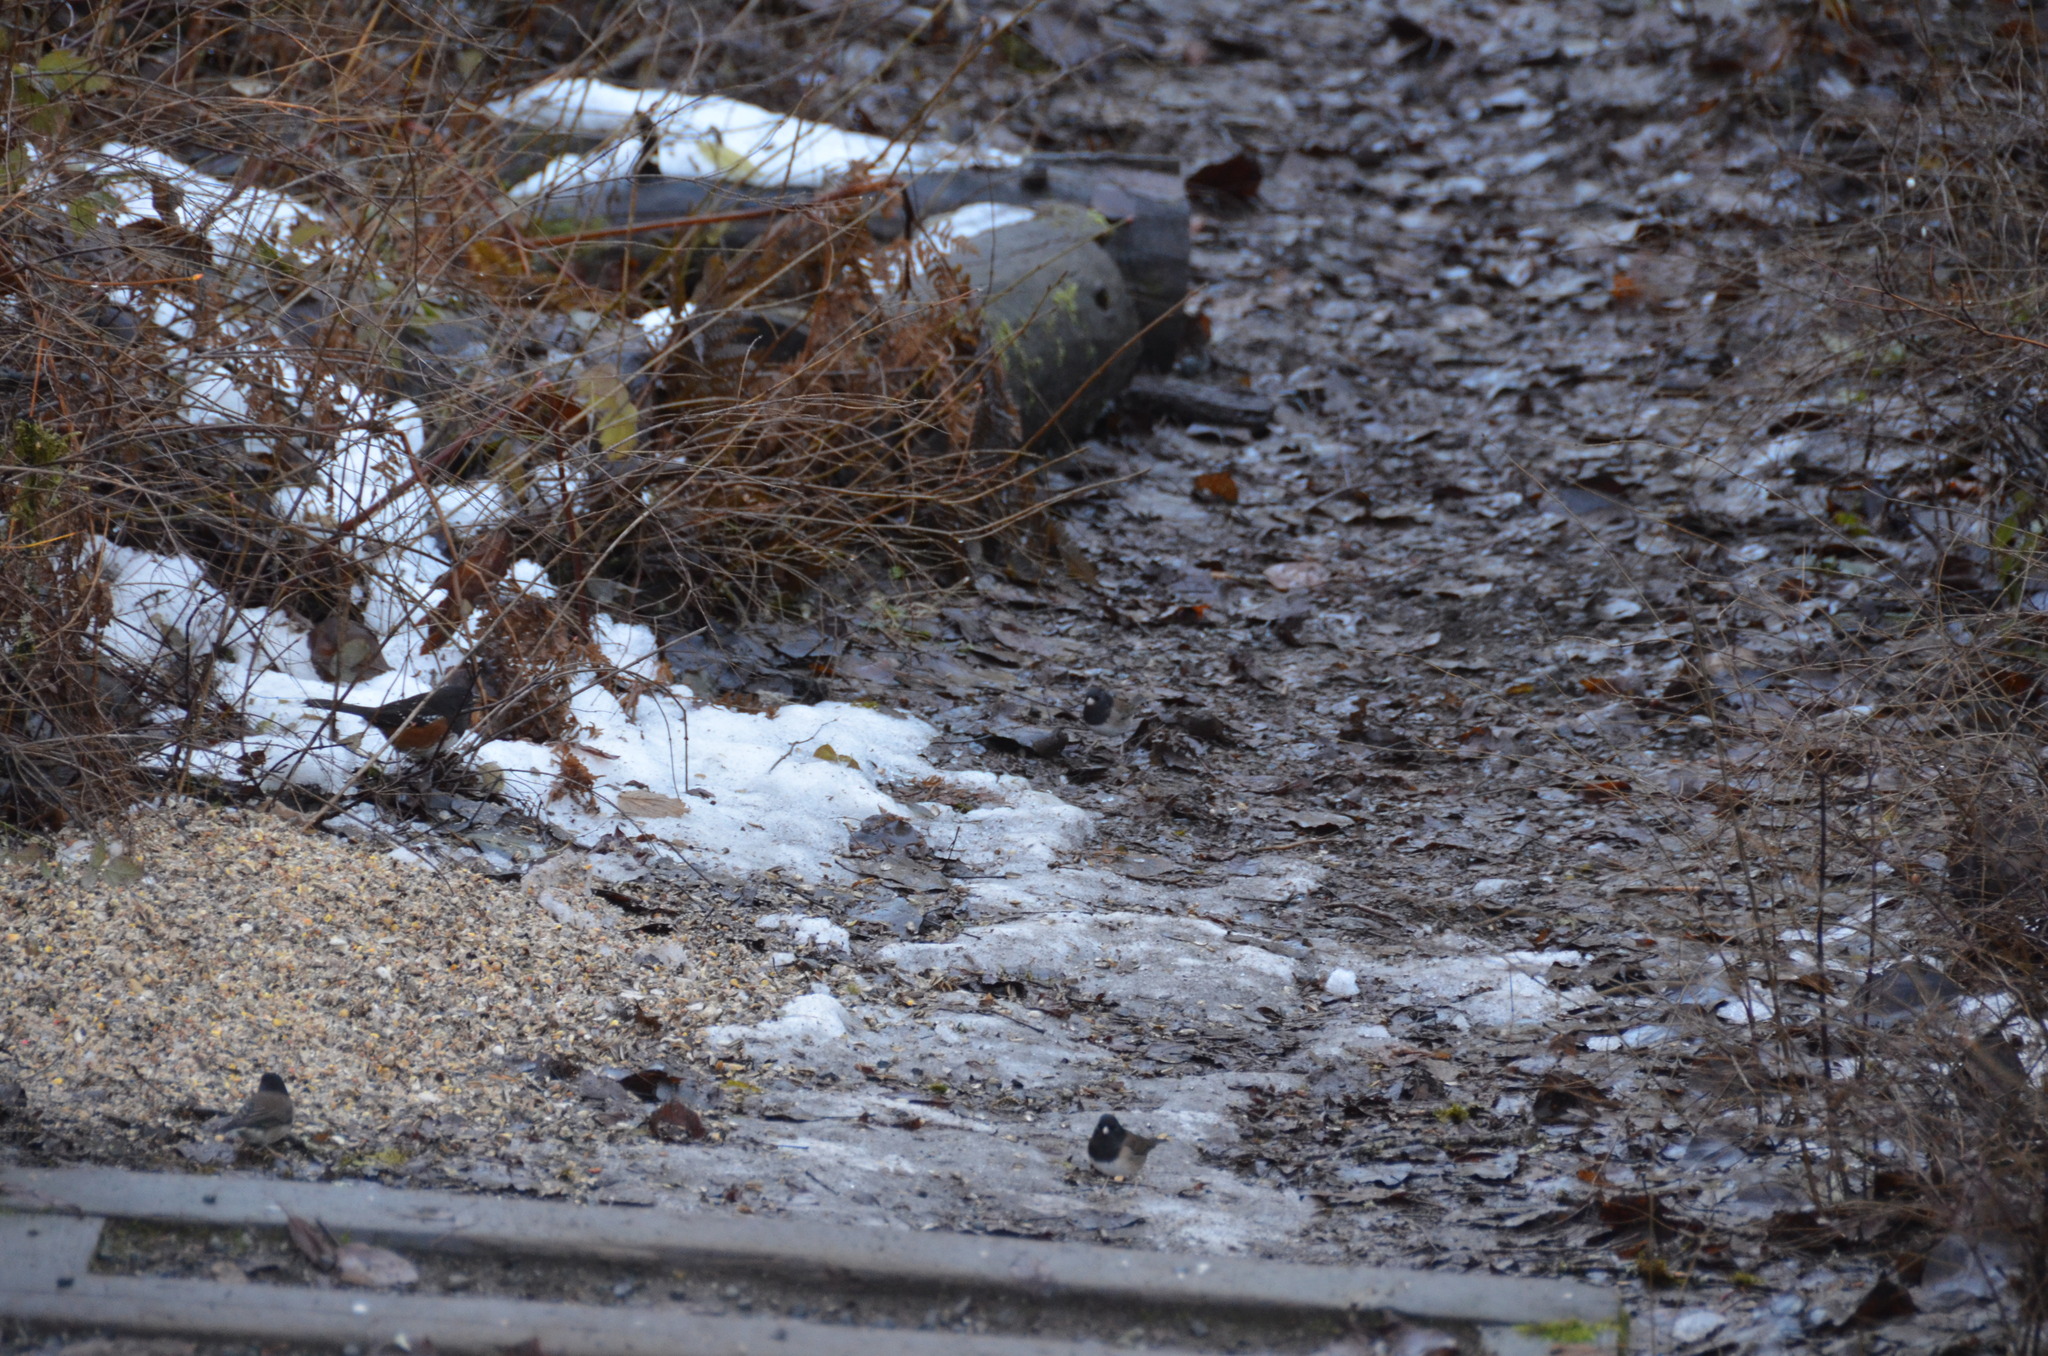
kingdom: Animalia
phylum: Chordata
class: Aves
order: Passeriformes
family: Passerellidae
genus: Pipilo
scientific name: Pipilo maculatus
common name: Spotted towhee
